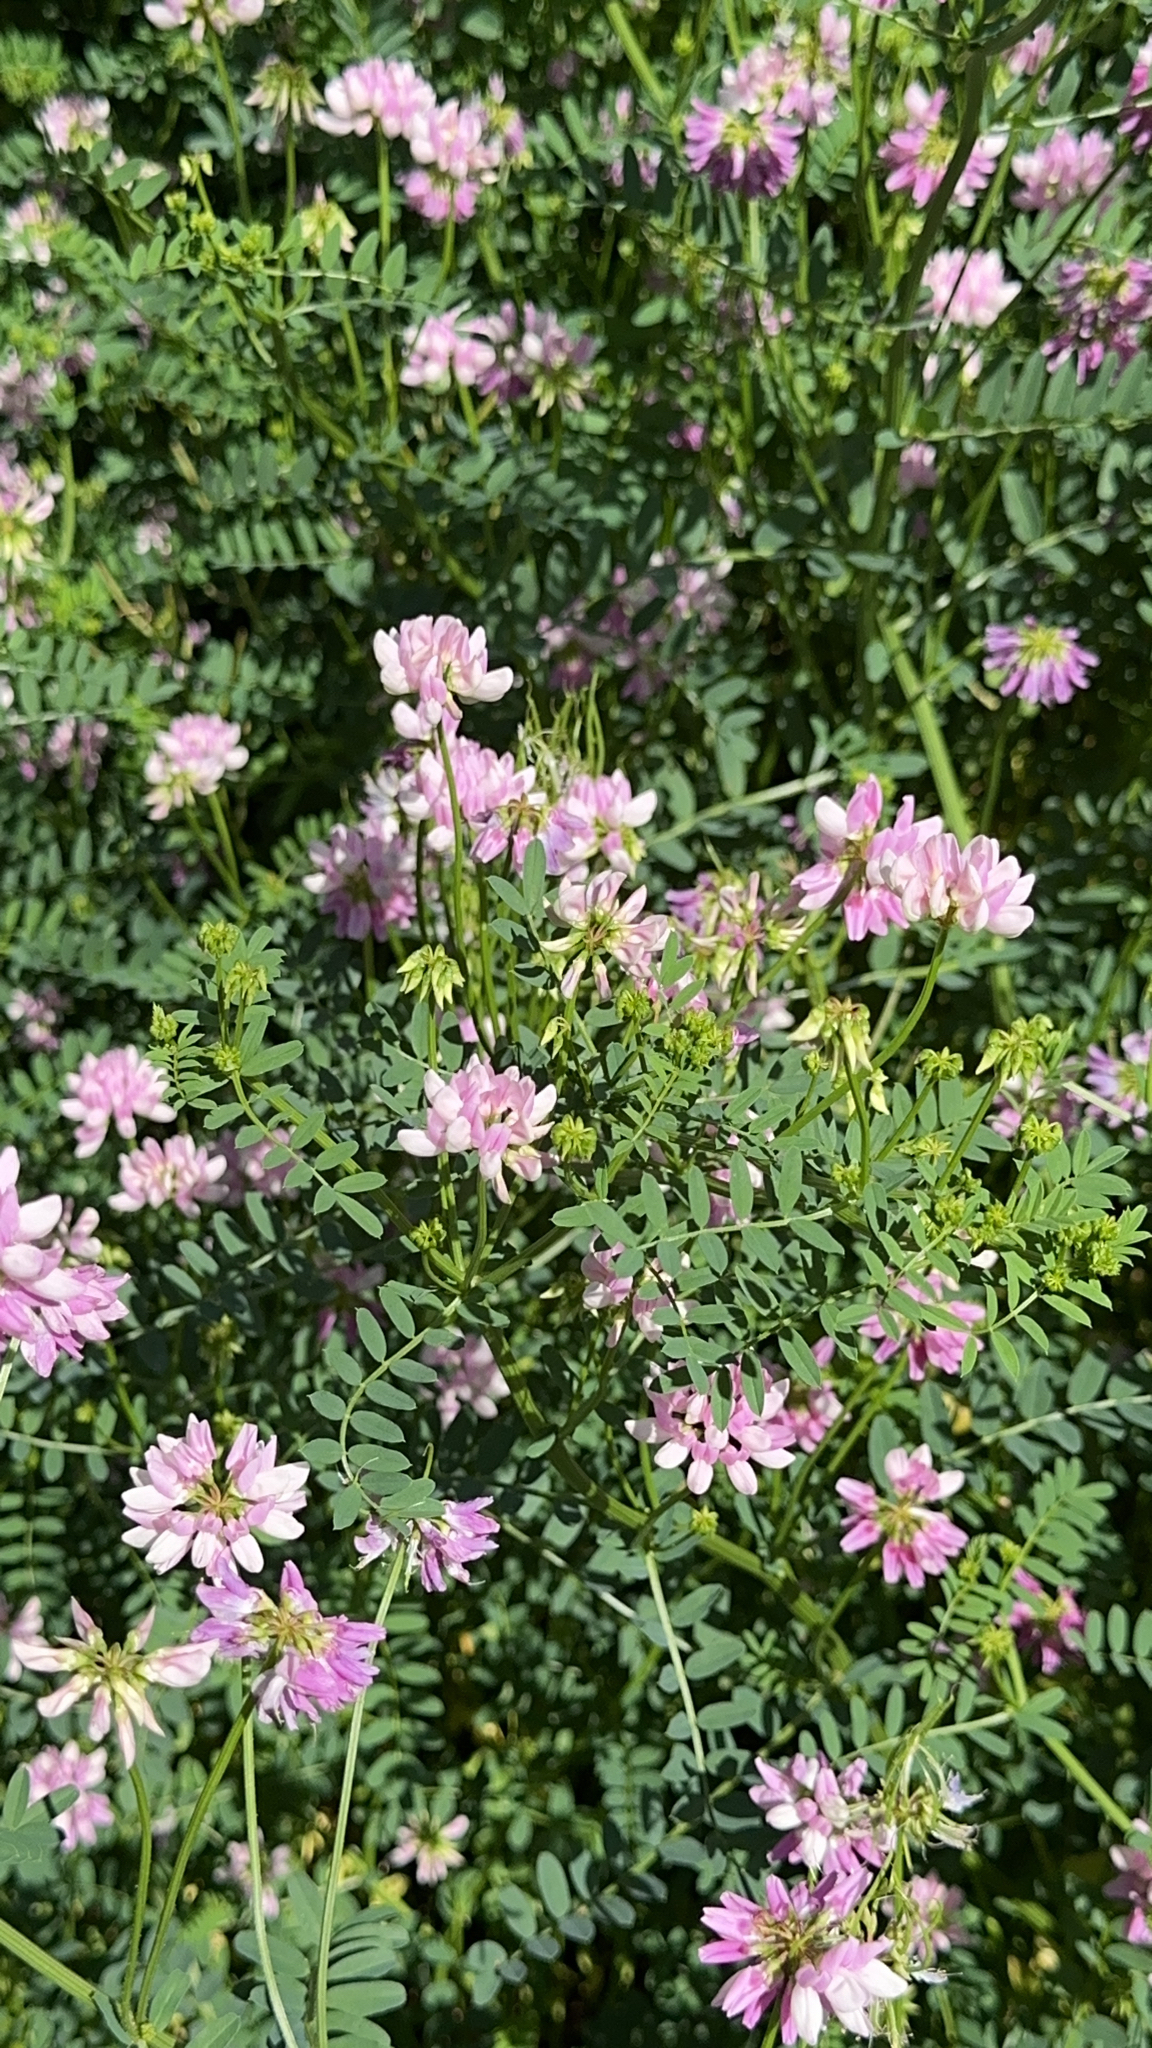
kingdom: Plantae
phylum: Tracheophyta
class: Magnoliopsida
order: Fabales
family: Fabaceae
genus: Coronilla
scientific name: Coronilla varia
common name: Crownvetch
